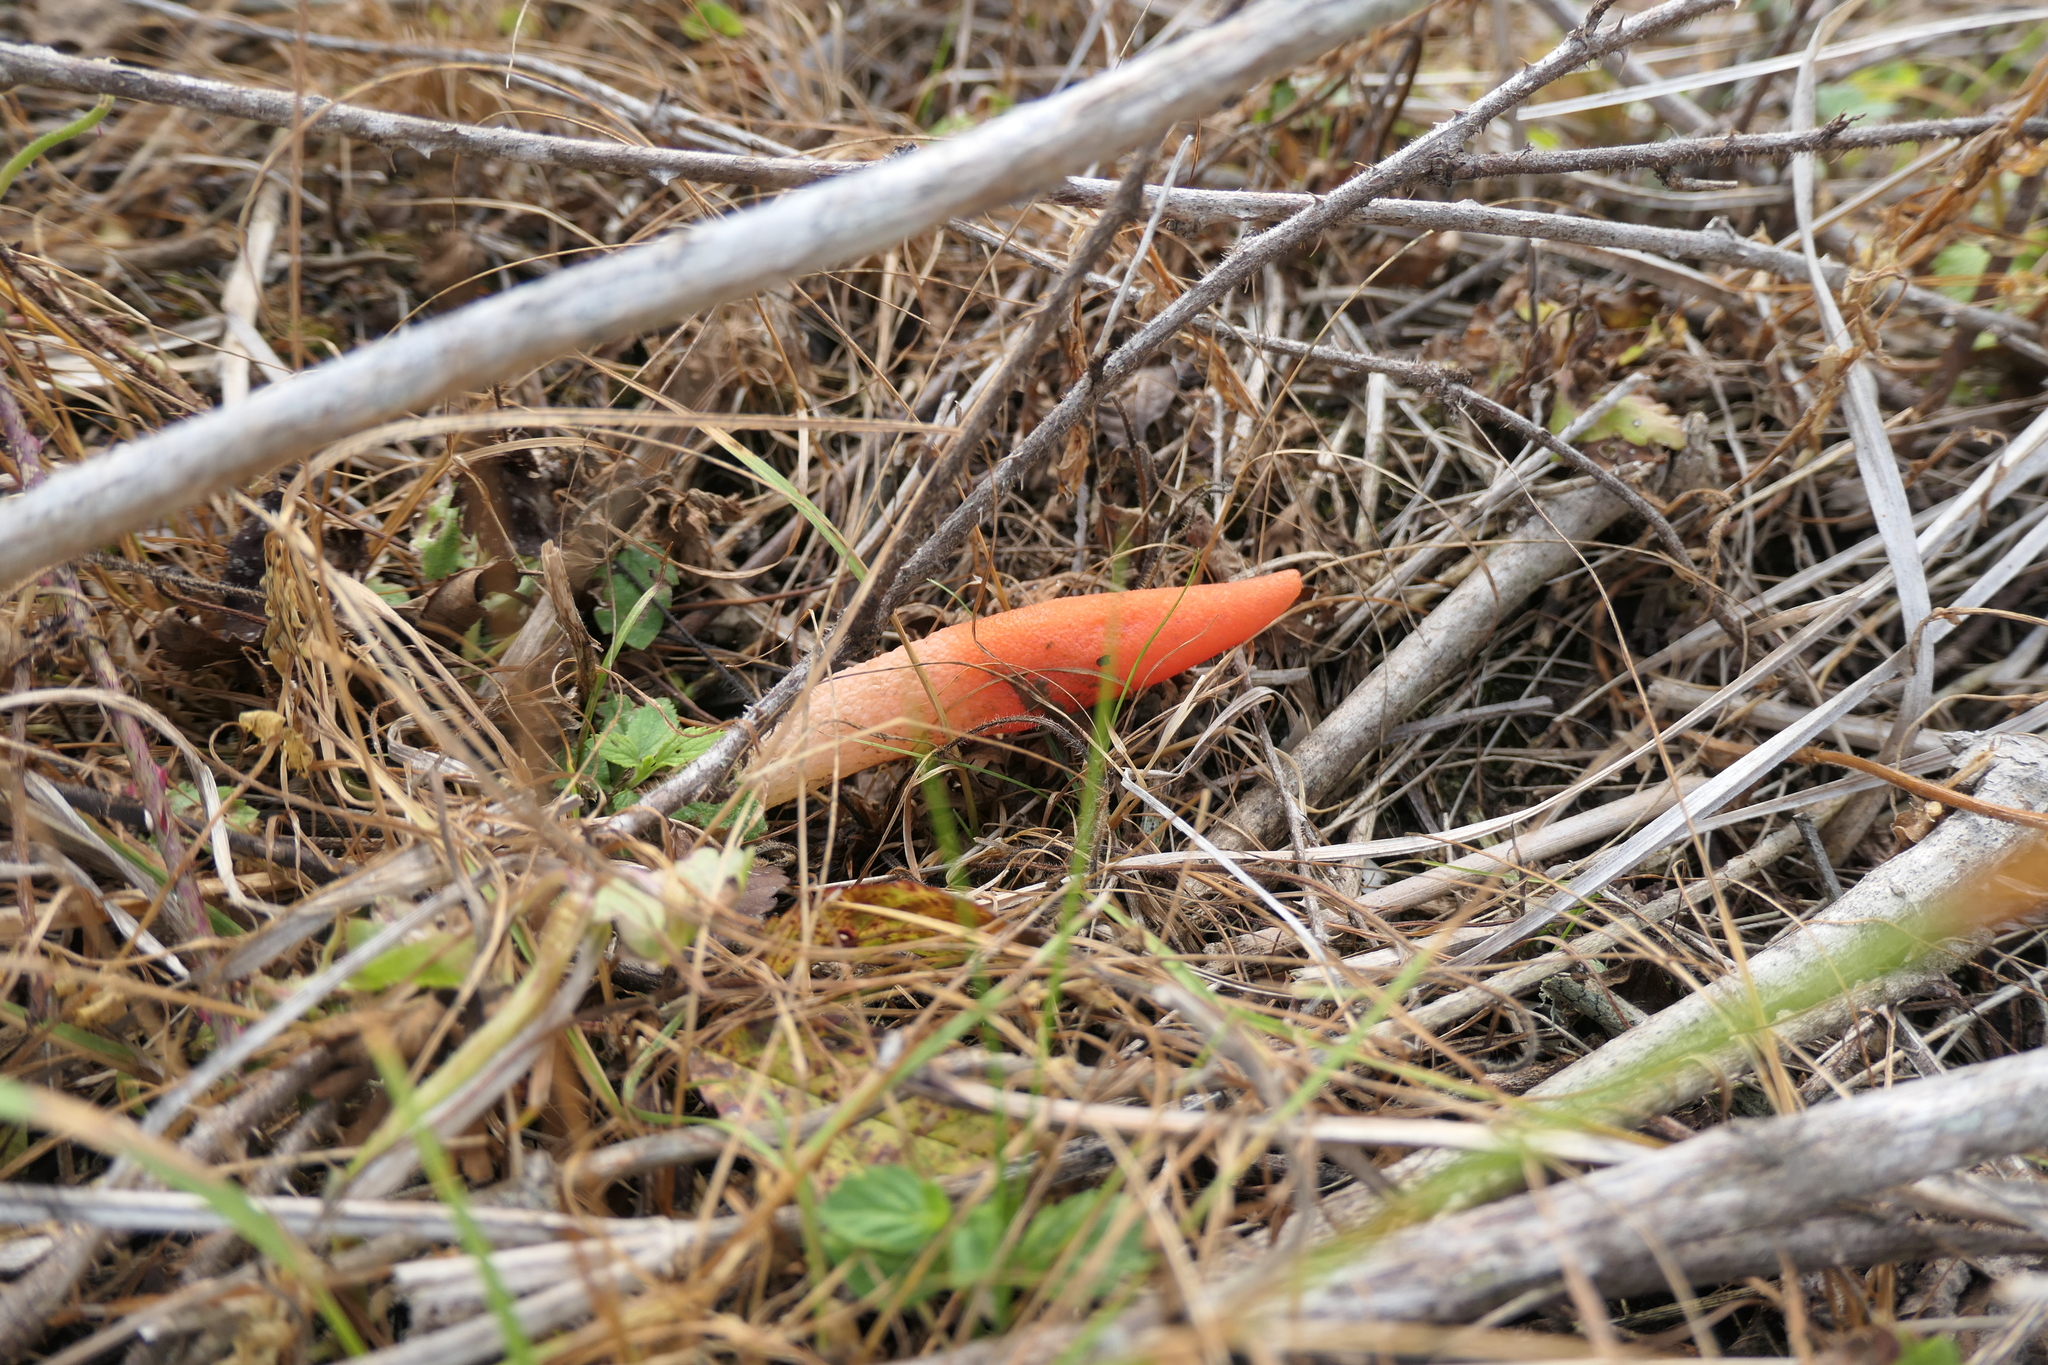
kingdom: Fungi
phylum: Basidiomycota
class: Agaricomycetes
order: Phallales
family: Phallaceae
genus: Mutinus
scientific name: Mutinus elegans
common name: Devil's dipstick
